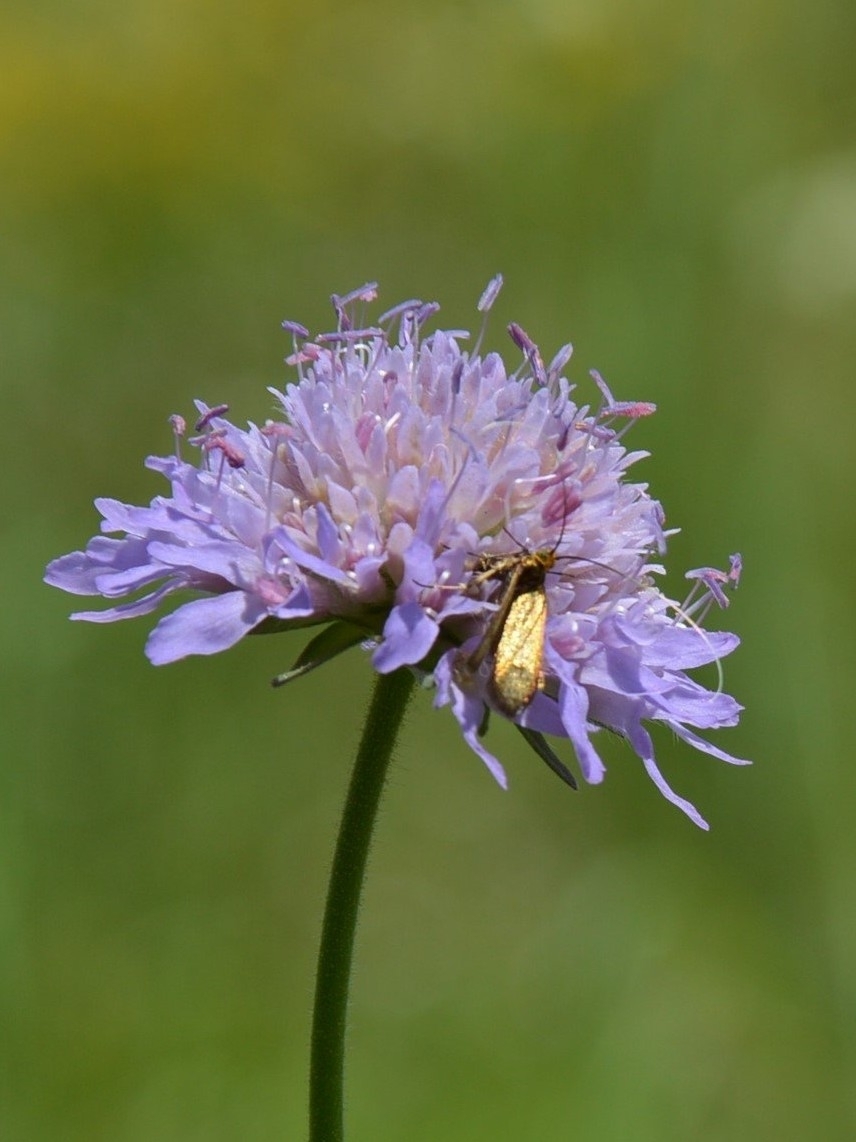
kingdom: Animalia
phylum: Arthropoda
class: Insecta
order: Lepidoptera
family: Adelidae
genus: Nemophora
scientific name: Nemophora metallica
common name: Brassy long-horn
